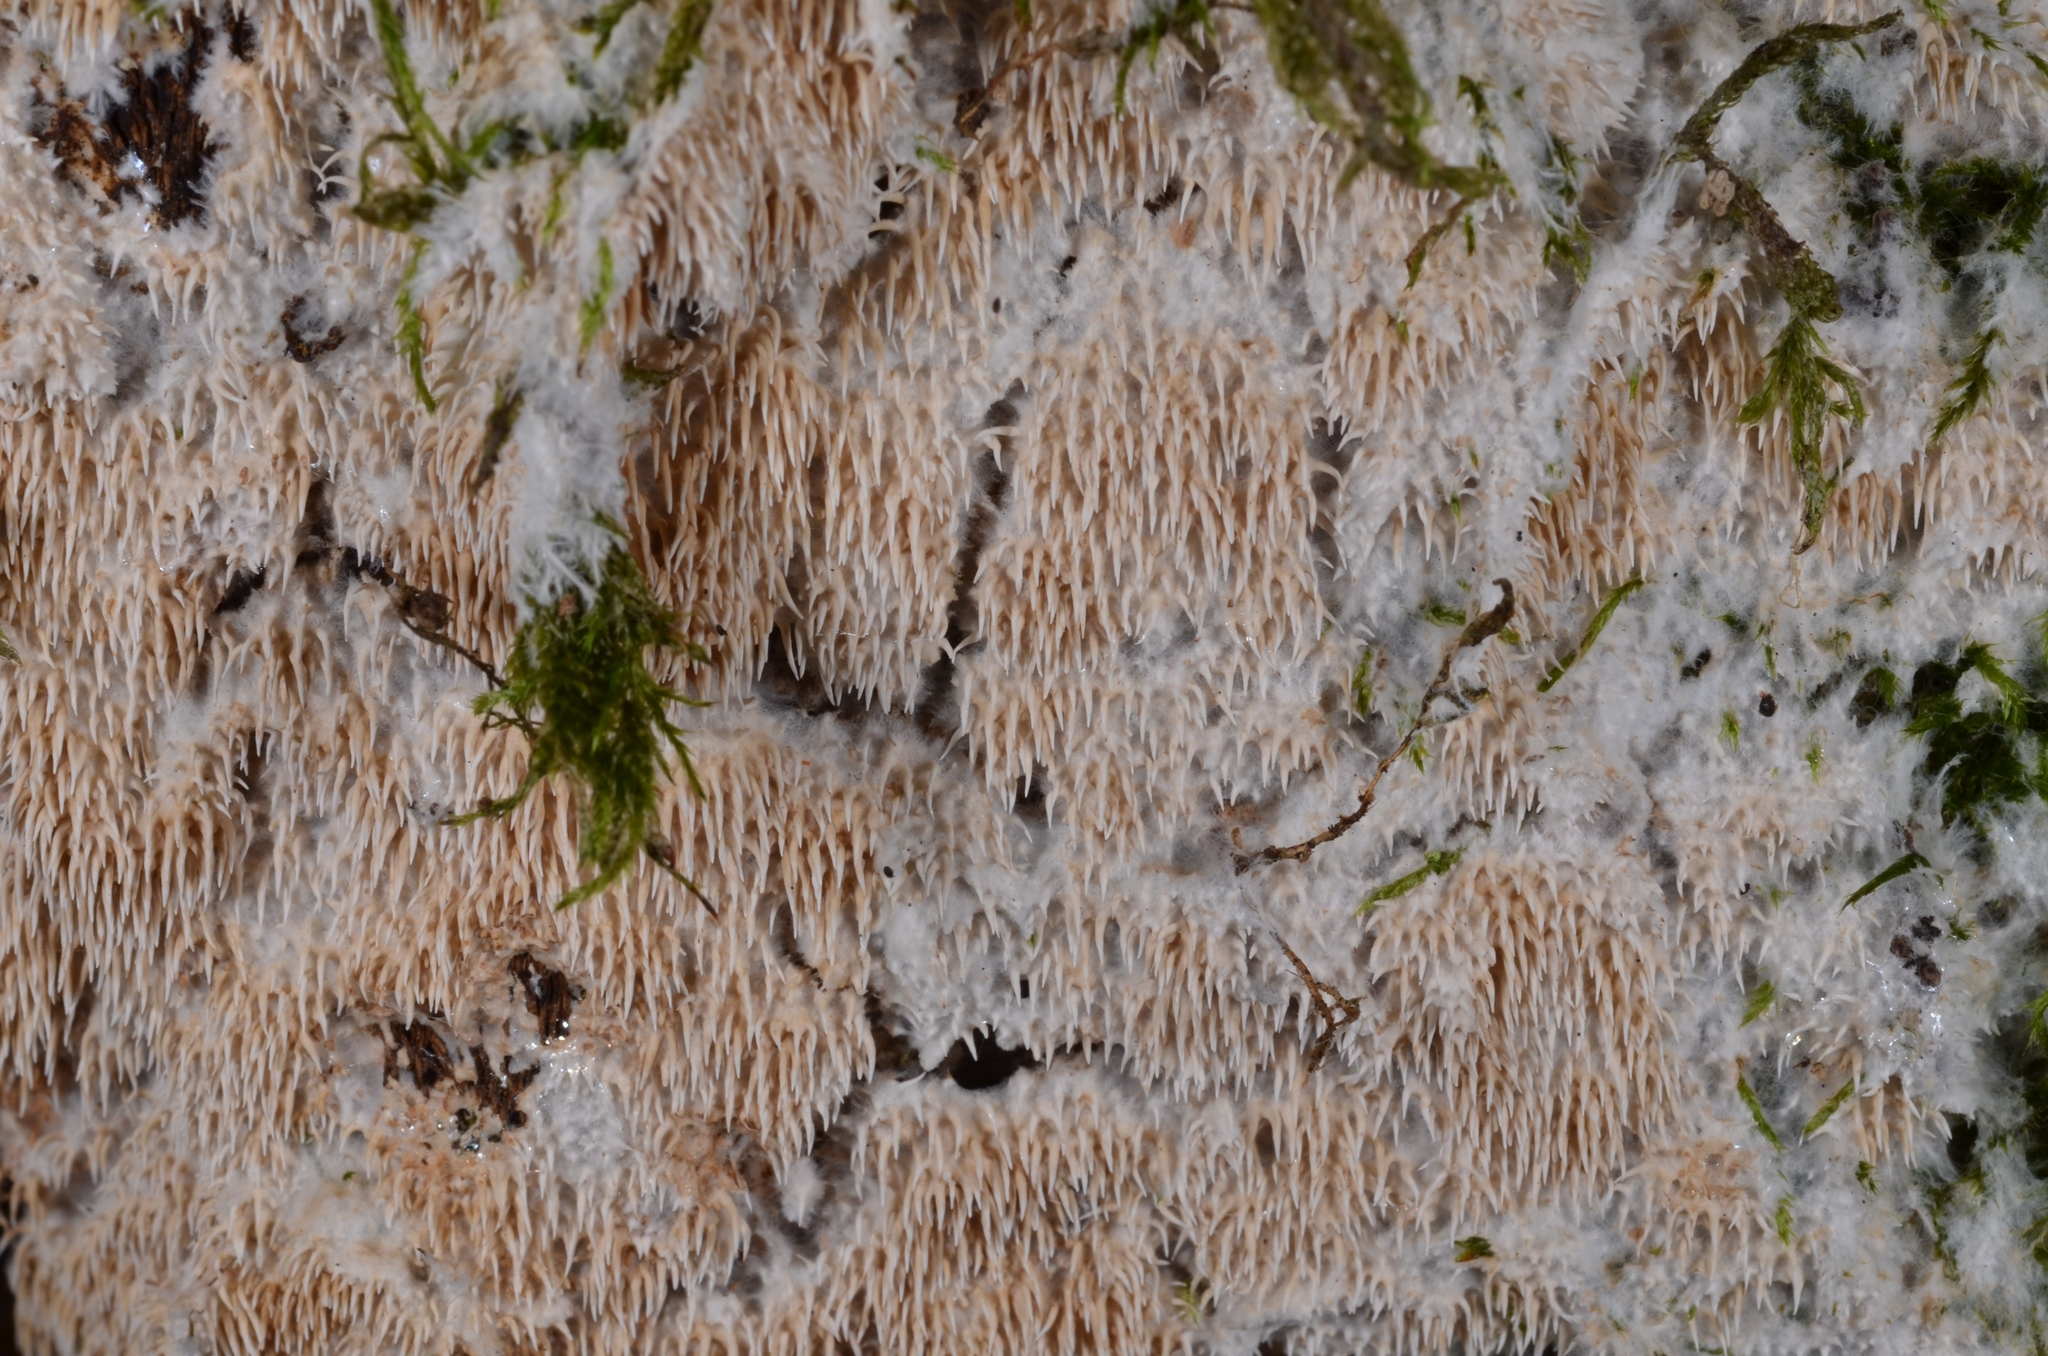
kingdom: Fungi
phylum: Basidiomycota
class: Agaricomycetes
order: Gomphales
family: Lentariaceae
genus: Hydnocristella
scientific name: Hydnocristella himantia
